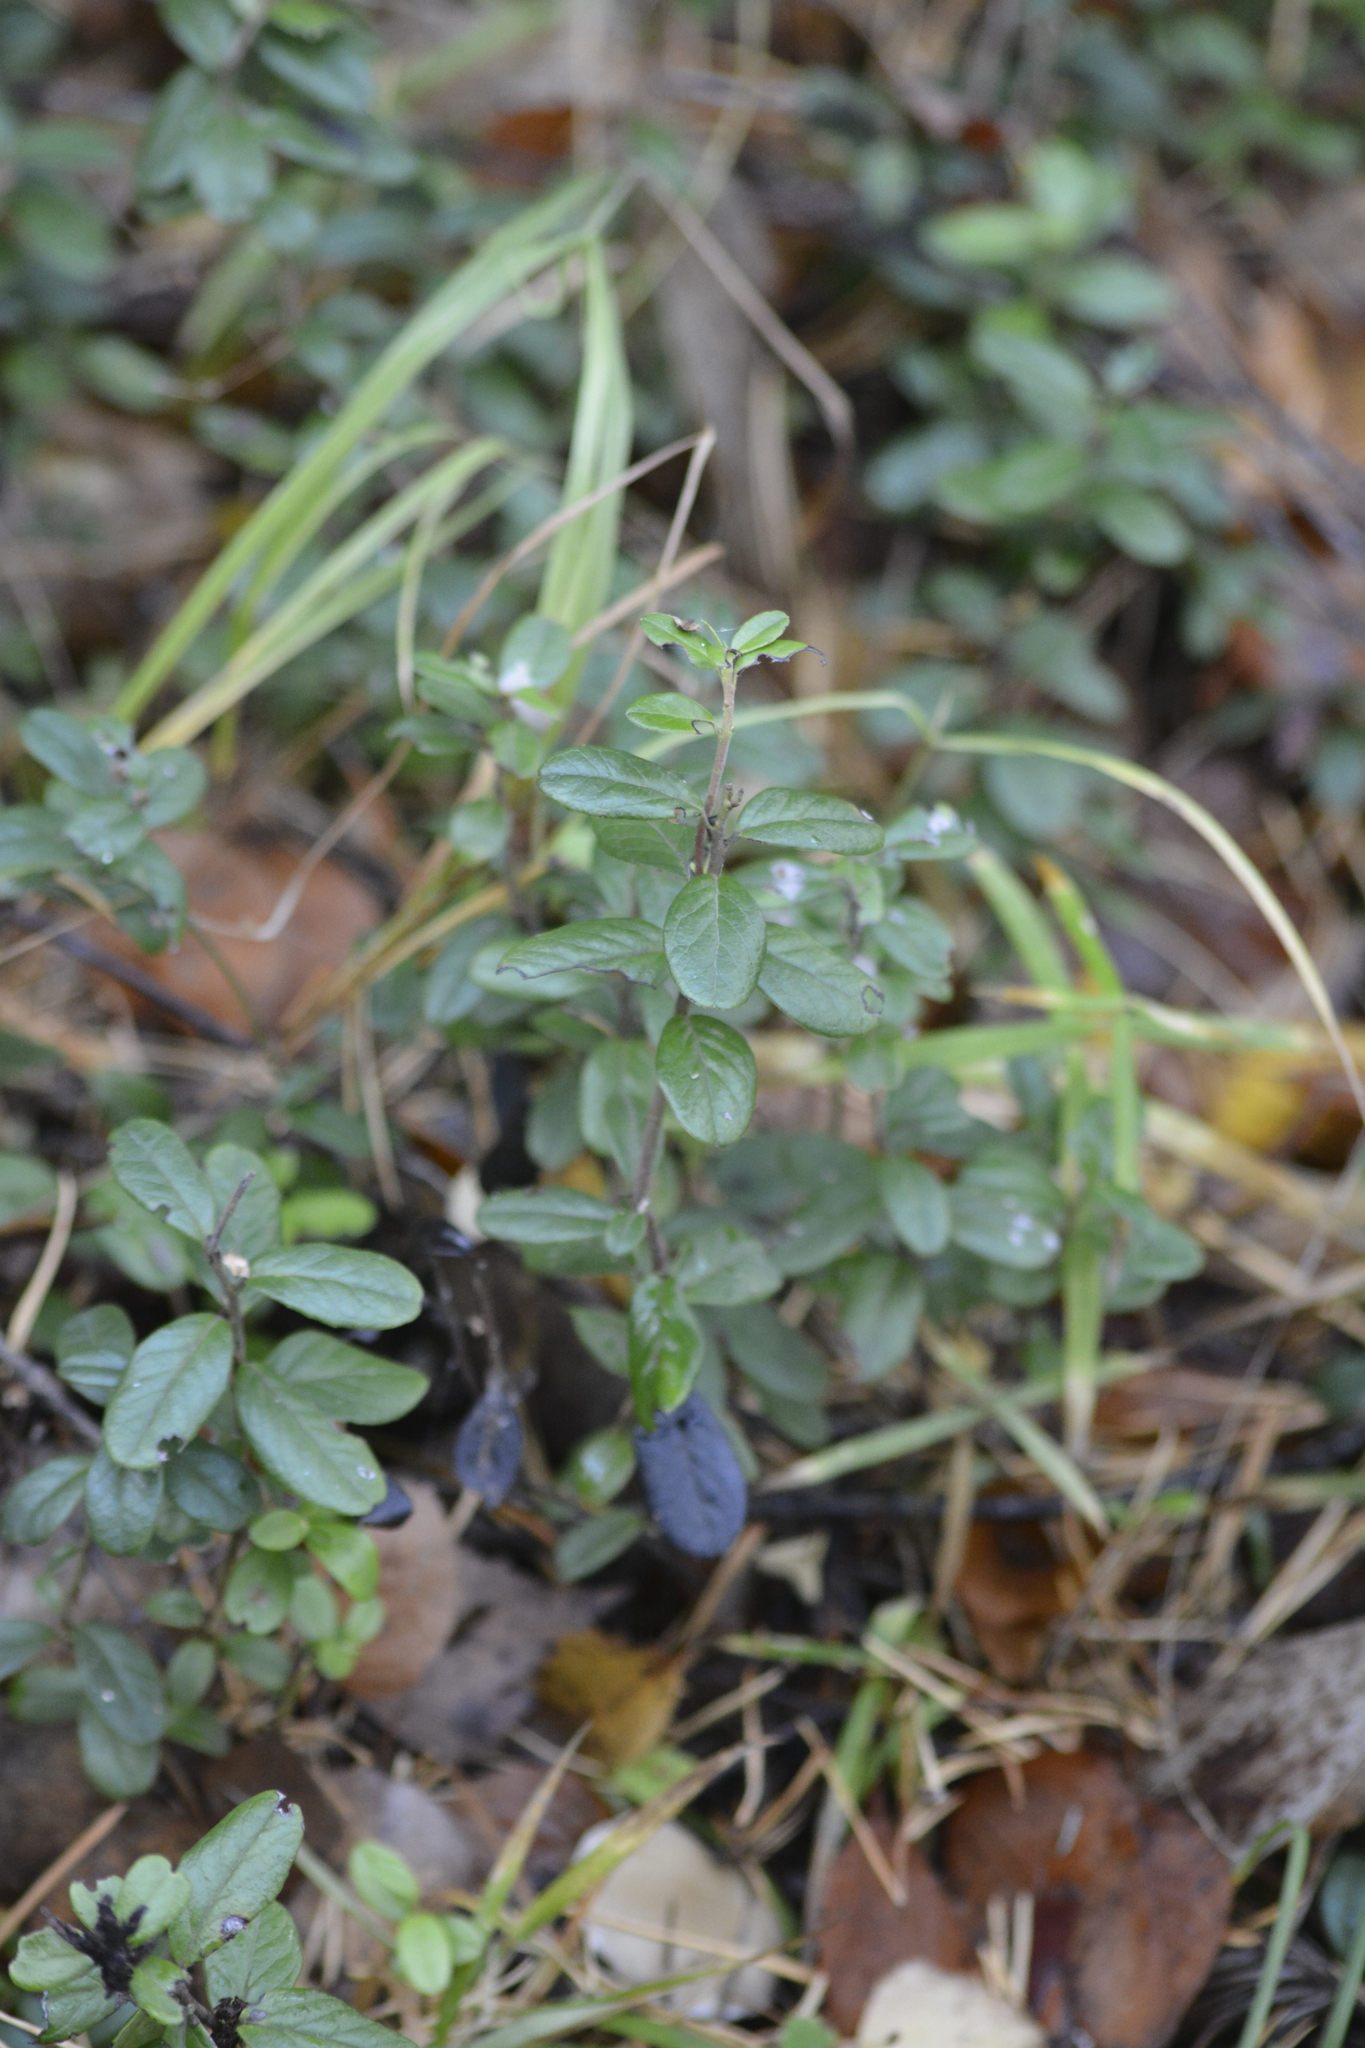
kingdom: Plantae
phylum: Tracheophyta
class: Magnoliopsida
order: Ericales
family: Ericaceae
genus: Vaccinium
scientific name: Vaccinium vitis-idaea
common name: Cowberry
